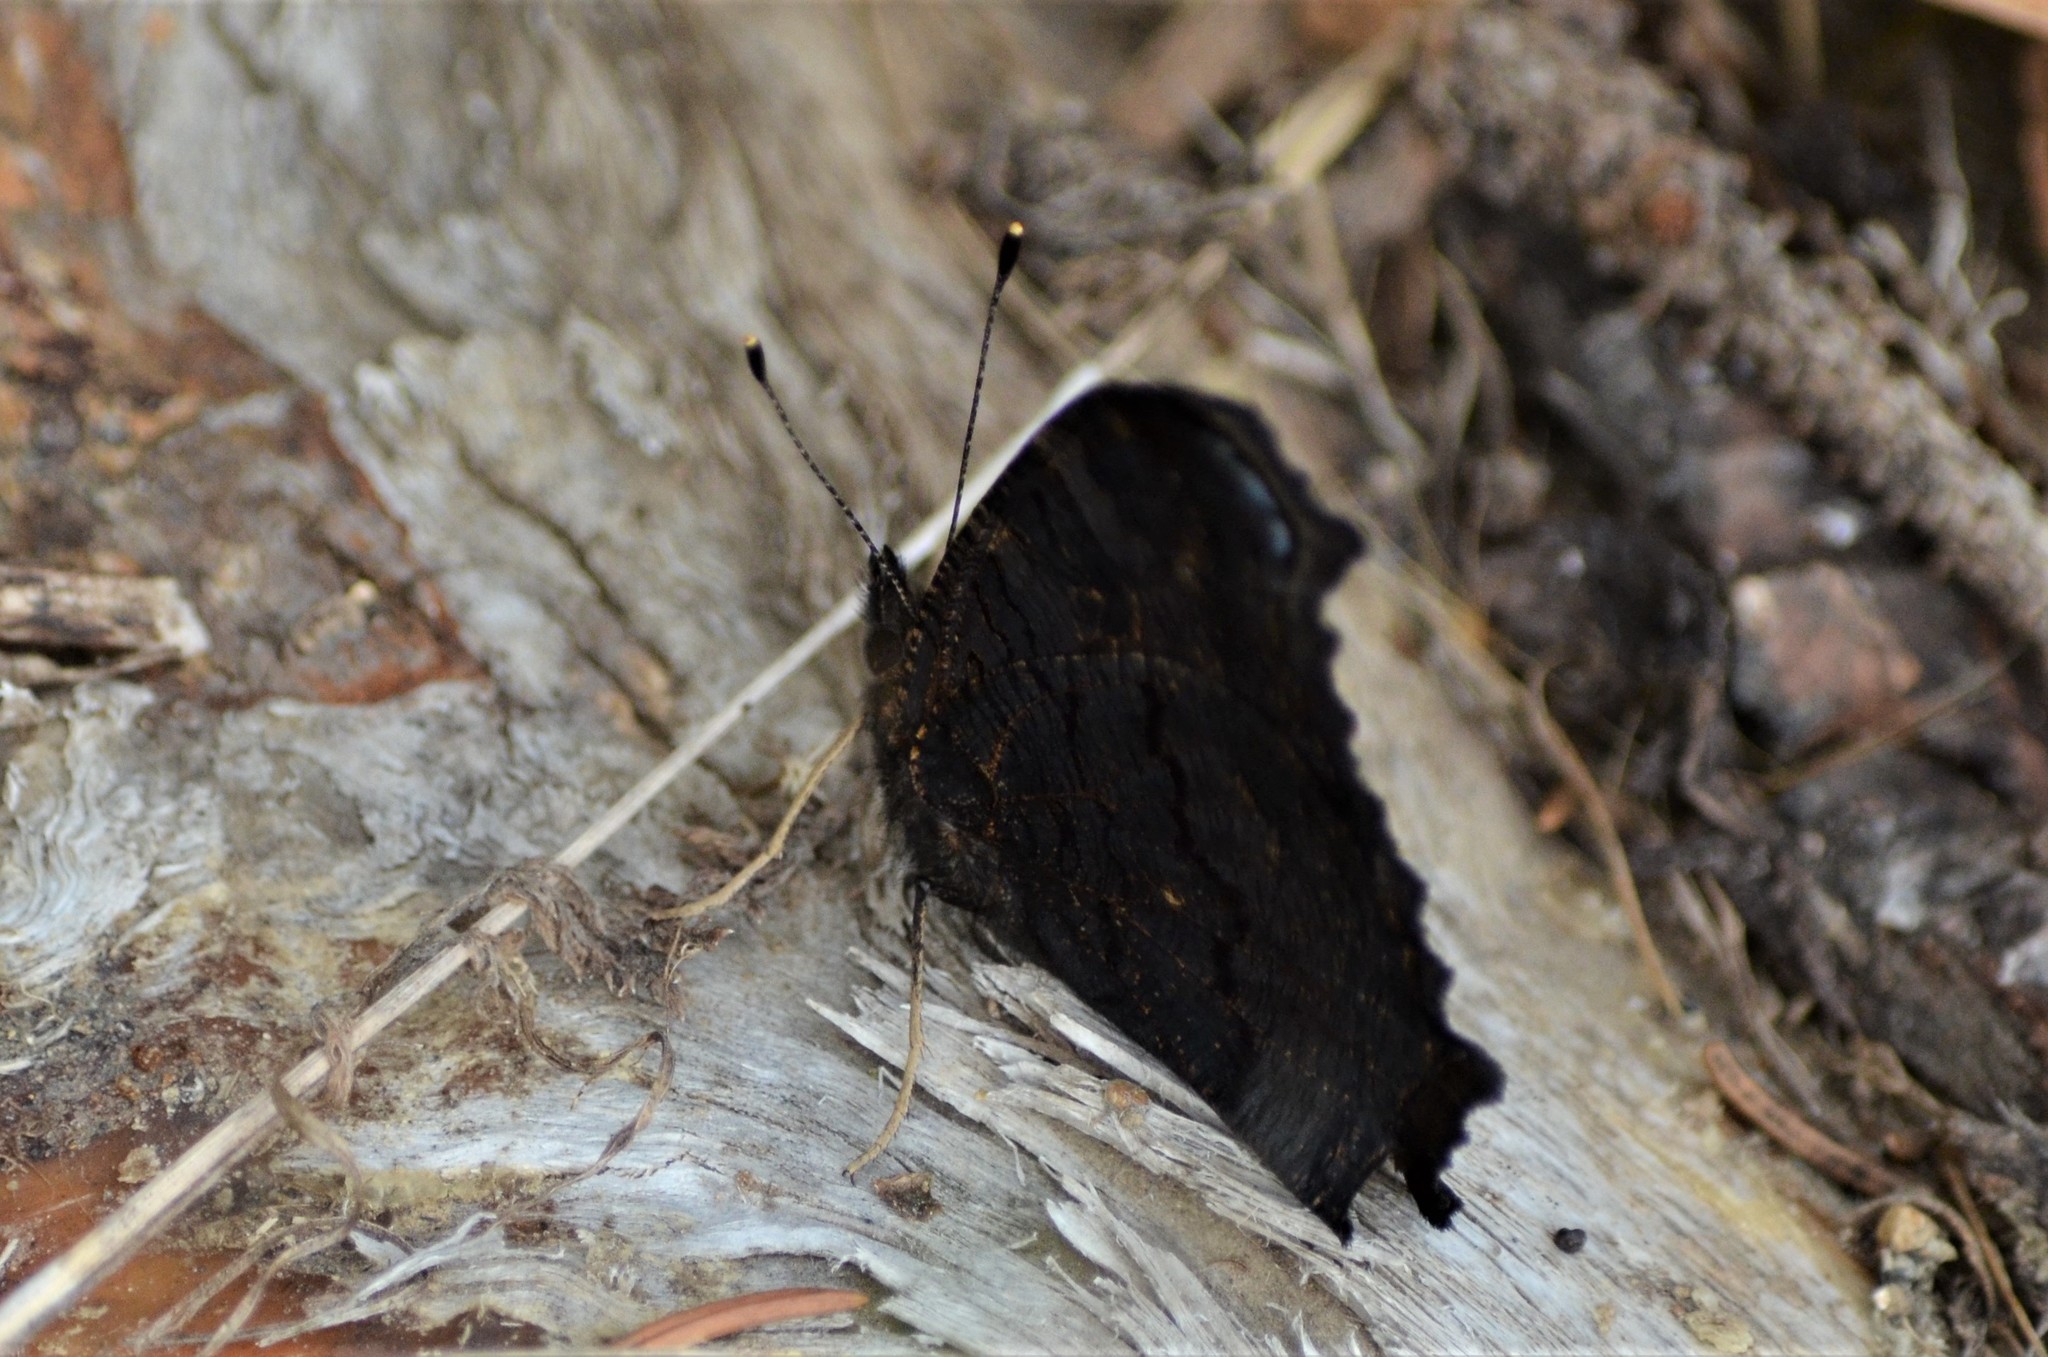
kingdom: Animalia
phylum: Arthropoda
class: Insecta
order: Lepidoptera
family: Nymphalidae
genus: Aglais
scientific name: Aglais io
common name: Peacock
